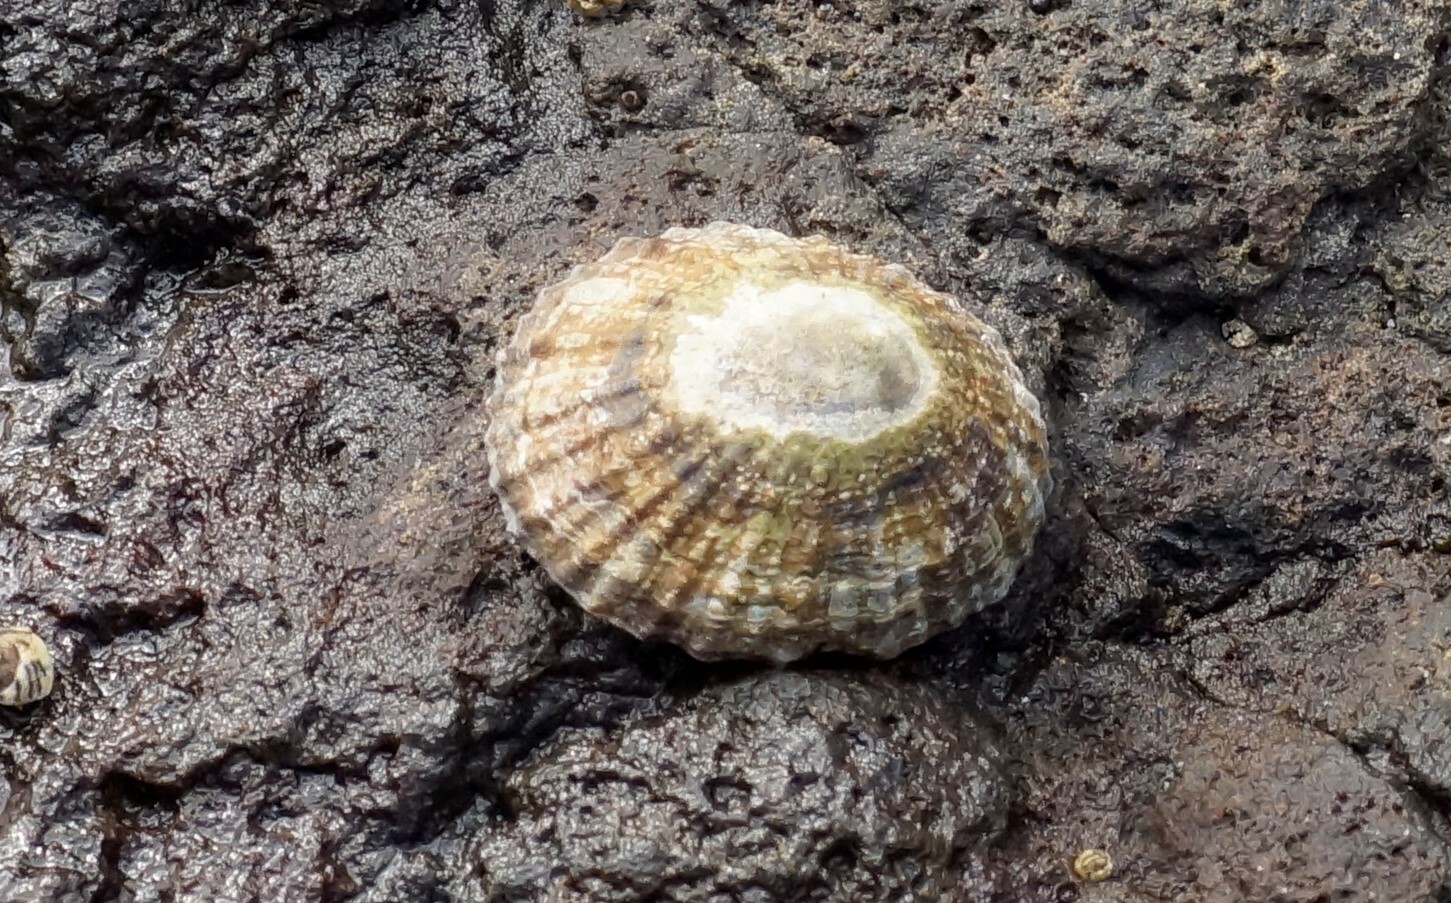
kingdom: Animalia
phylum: Mollusca
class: Gastropoda
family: Nacellidae
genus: Cellana
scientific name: Cellana tramoserica
